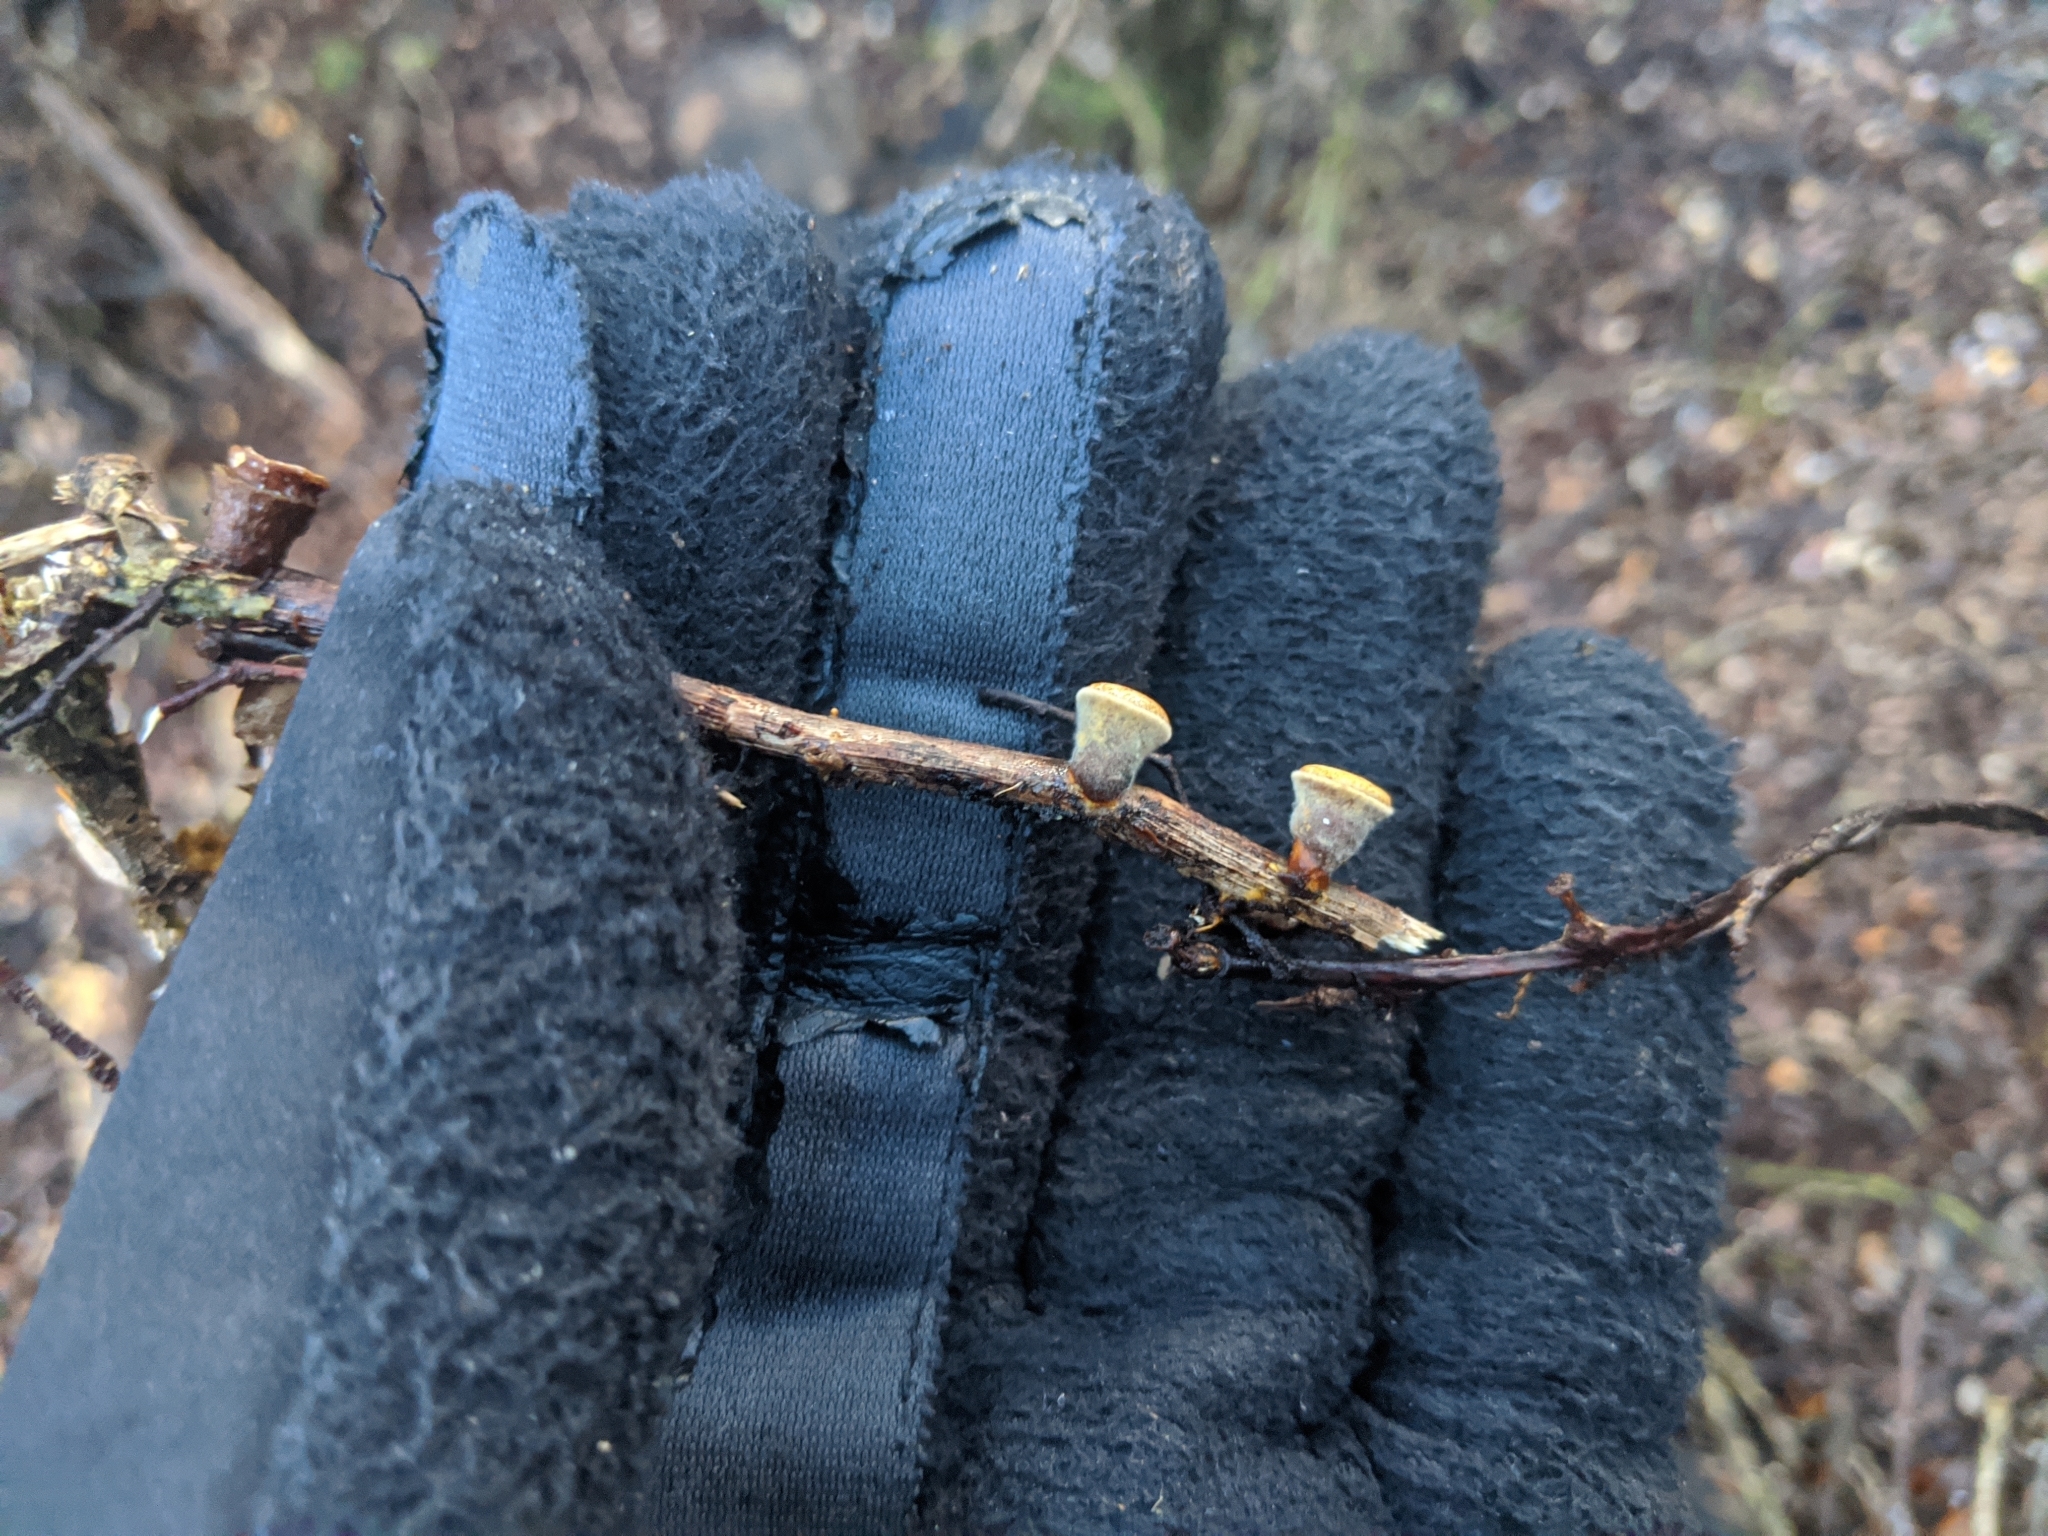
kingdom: Fungi
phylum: Basidiomycota
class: Agaricomycetes
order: Agaricales
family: Nidulariaceae
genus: Crucibulum
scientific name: Crucibulum simile
